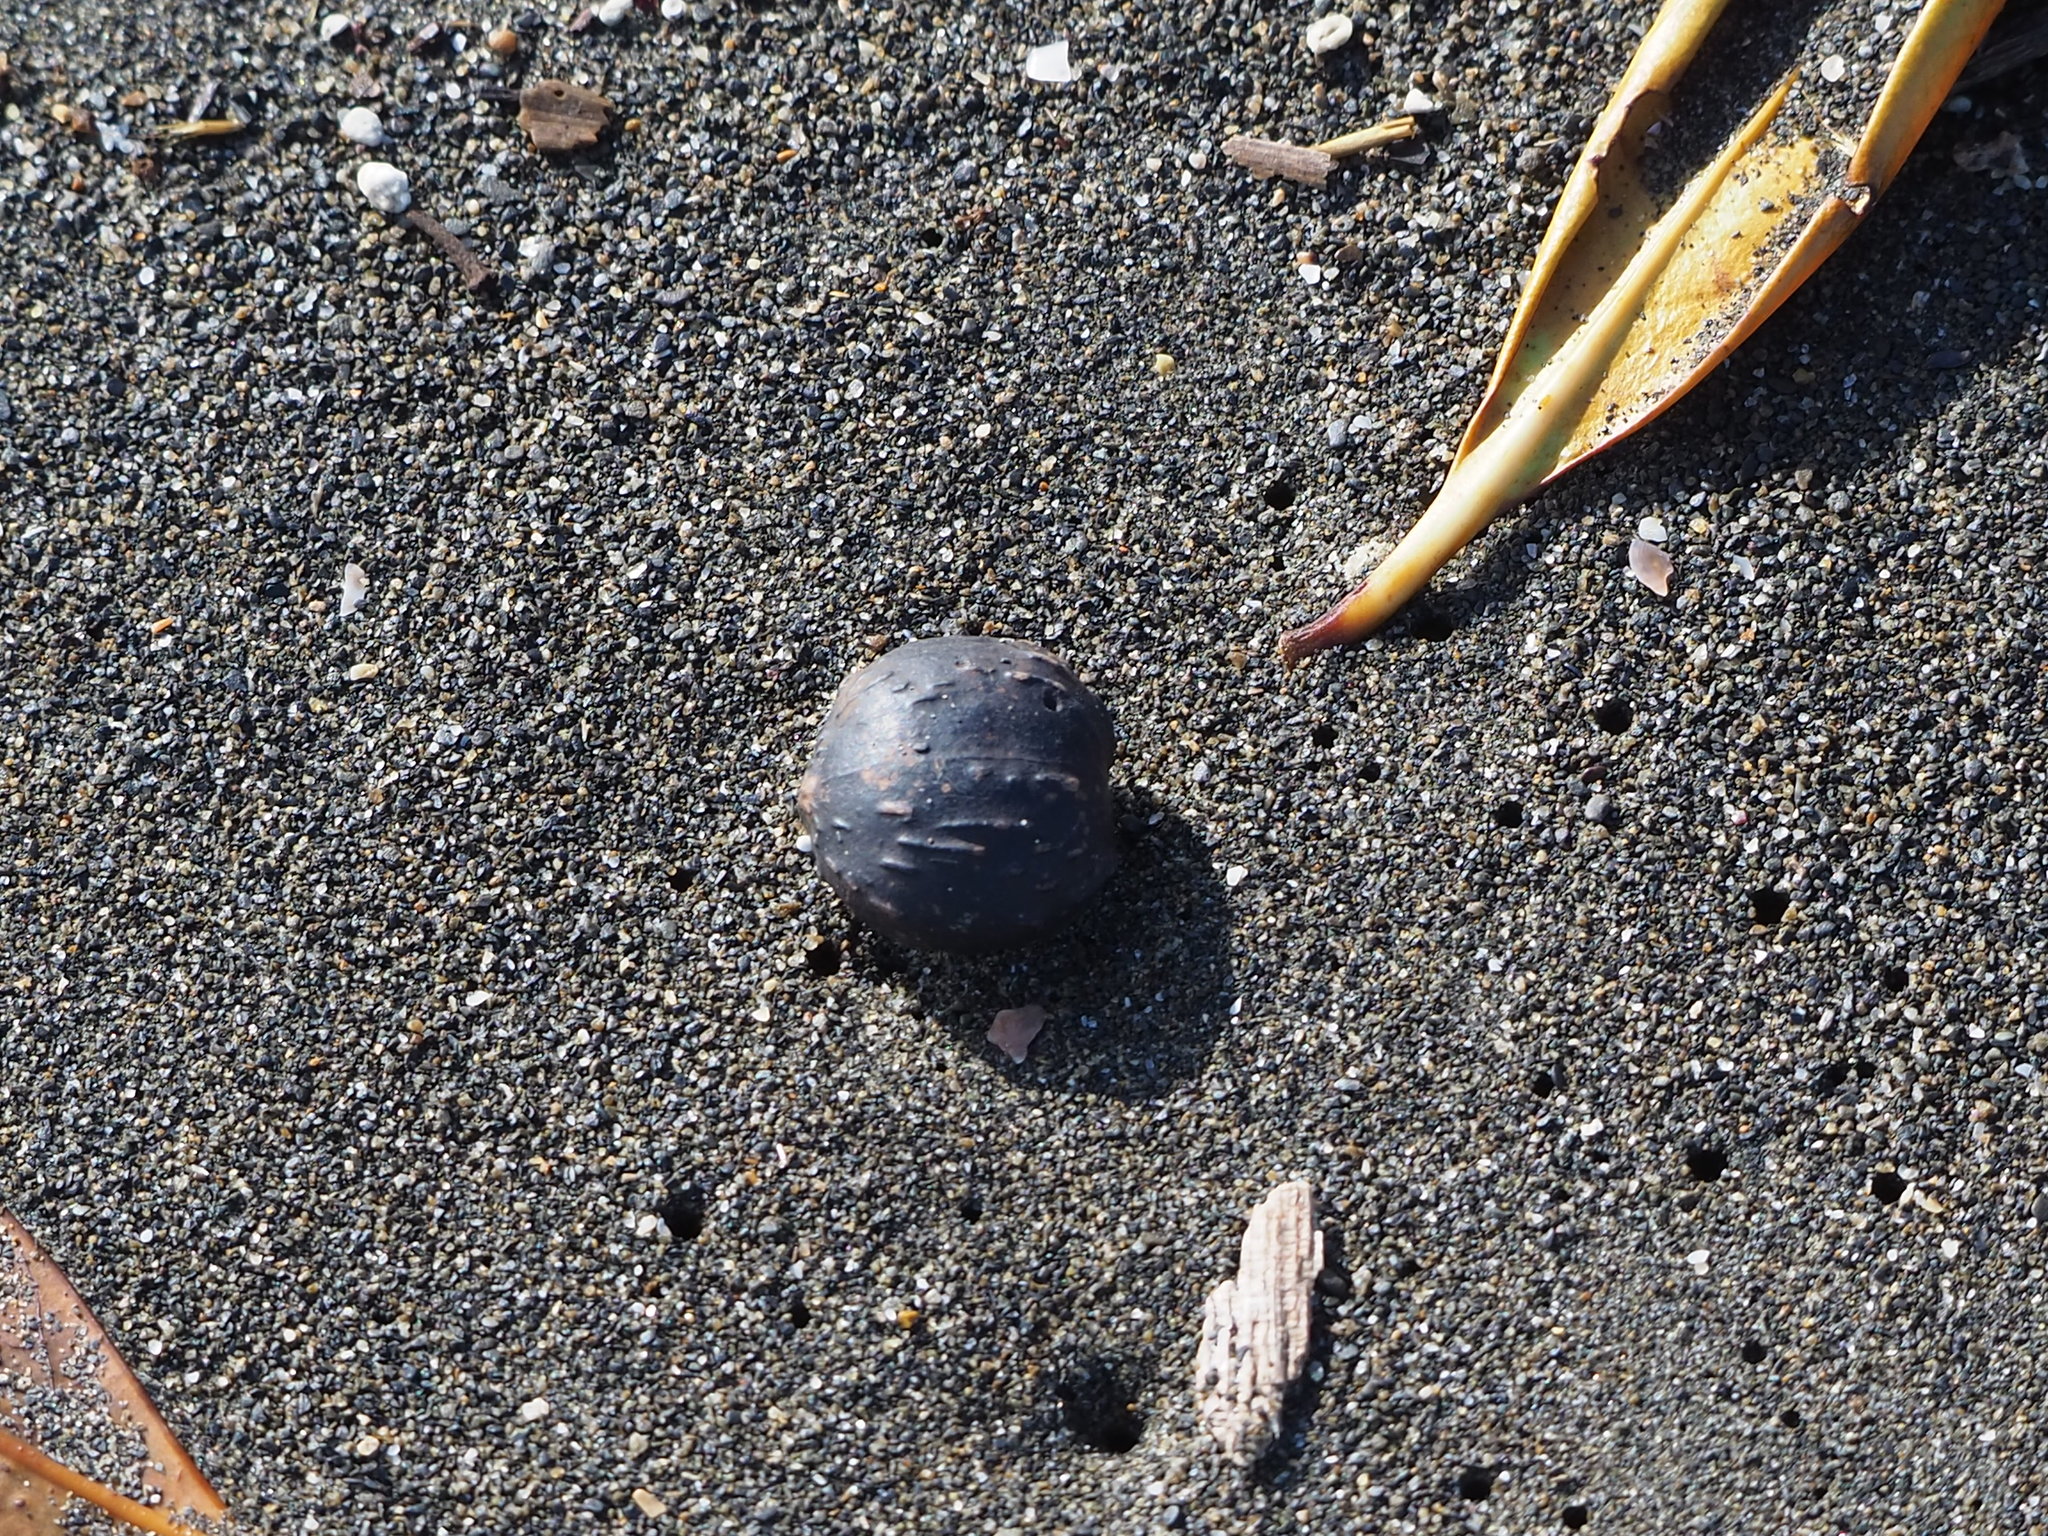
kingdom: Plantae
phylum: Tracheophyta
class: Magnoliopsida
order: Malpighiales
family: Euphorbiaceae
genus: Vernicia
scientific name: Vernicia montana
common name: Mu oil tree
